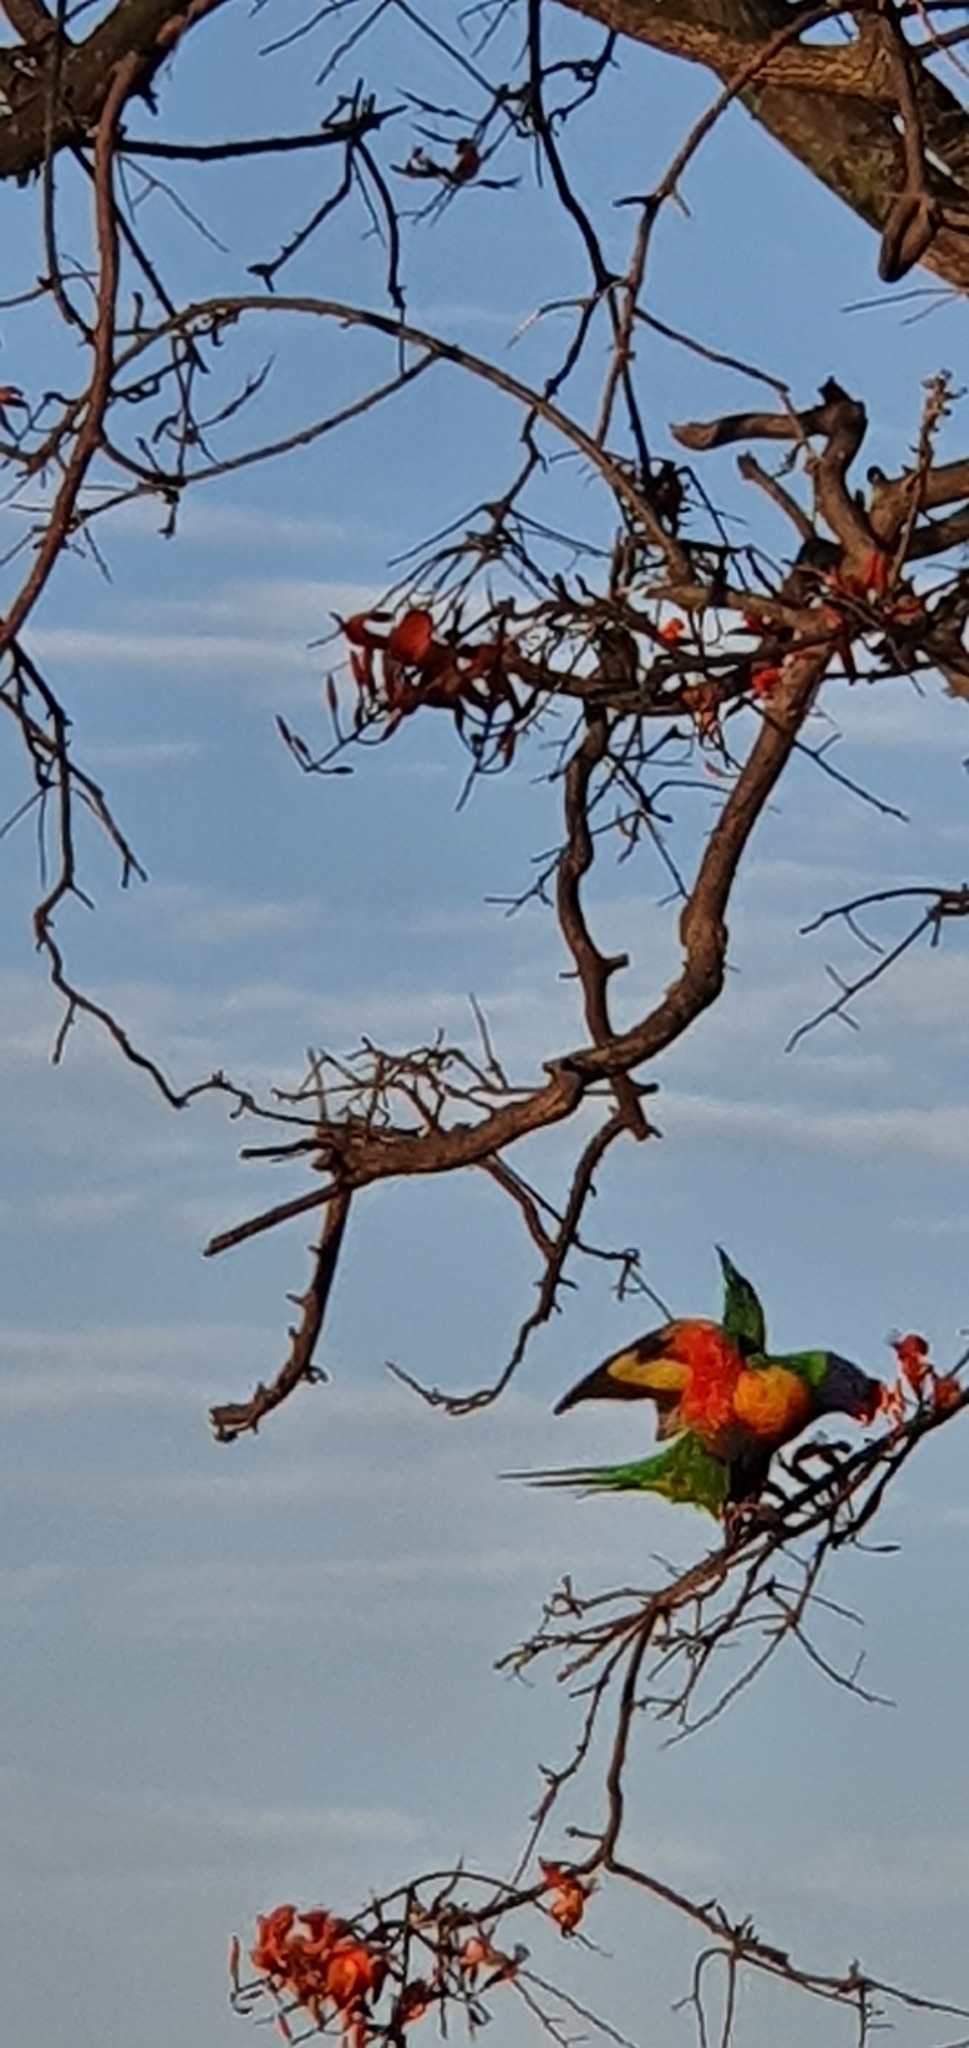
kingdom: Animalia
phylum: Chordata
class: Aves
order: Psittaciformes
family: Psittacidae
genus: Trichoglossus
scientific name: Trichoglossus haematodus
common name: Coconut lorikeet
